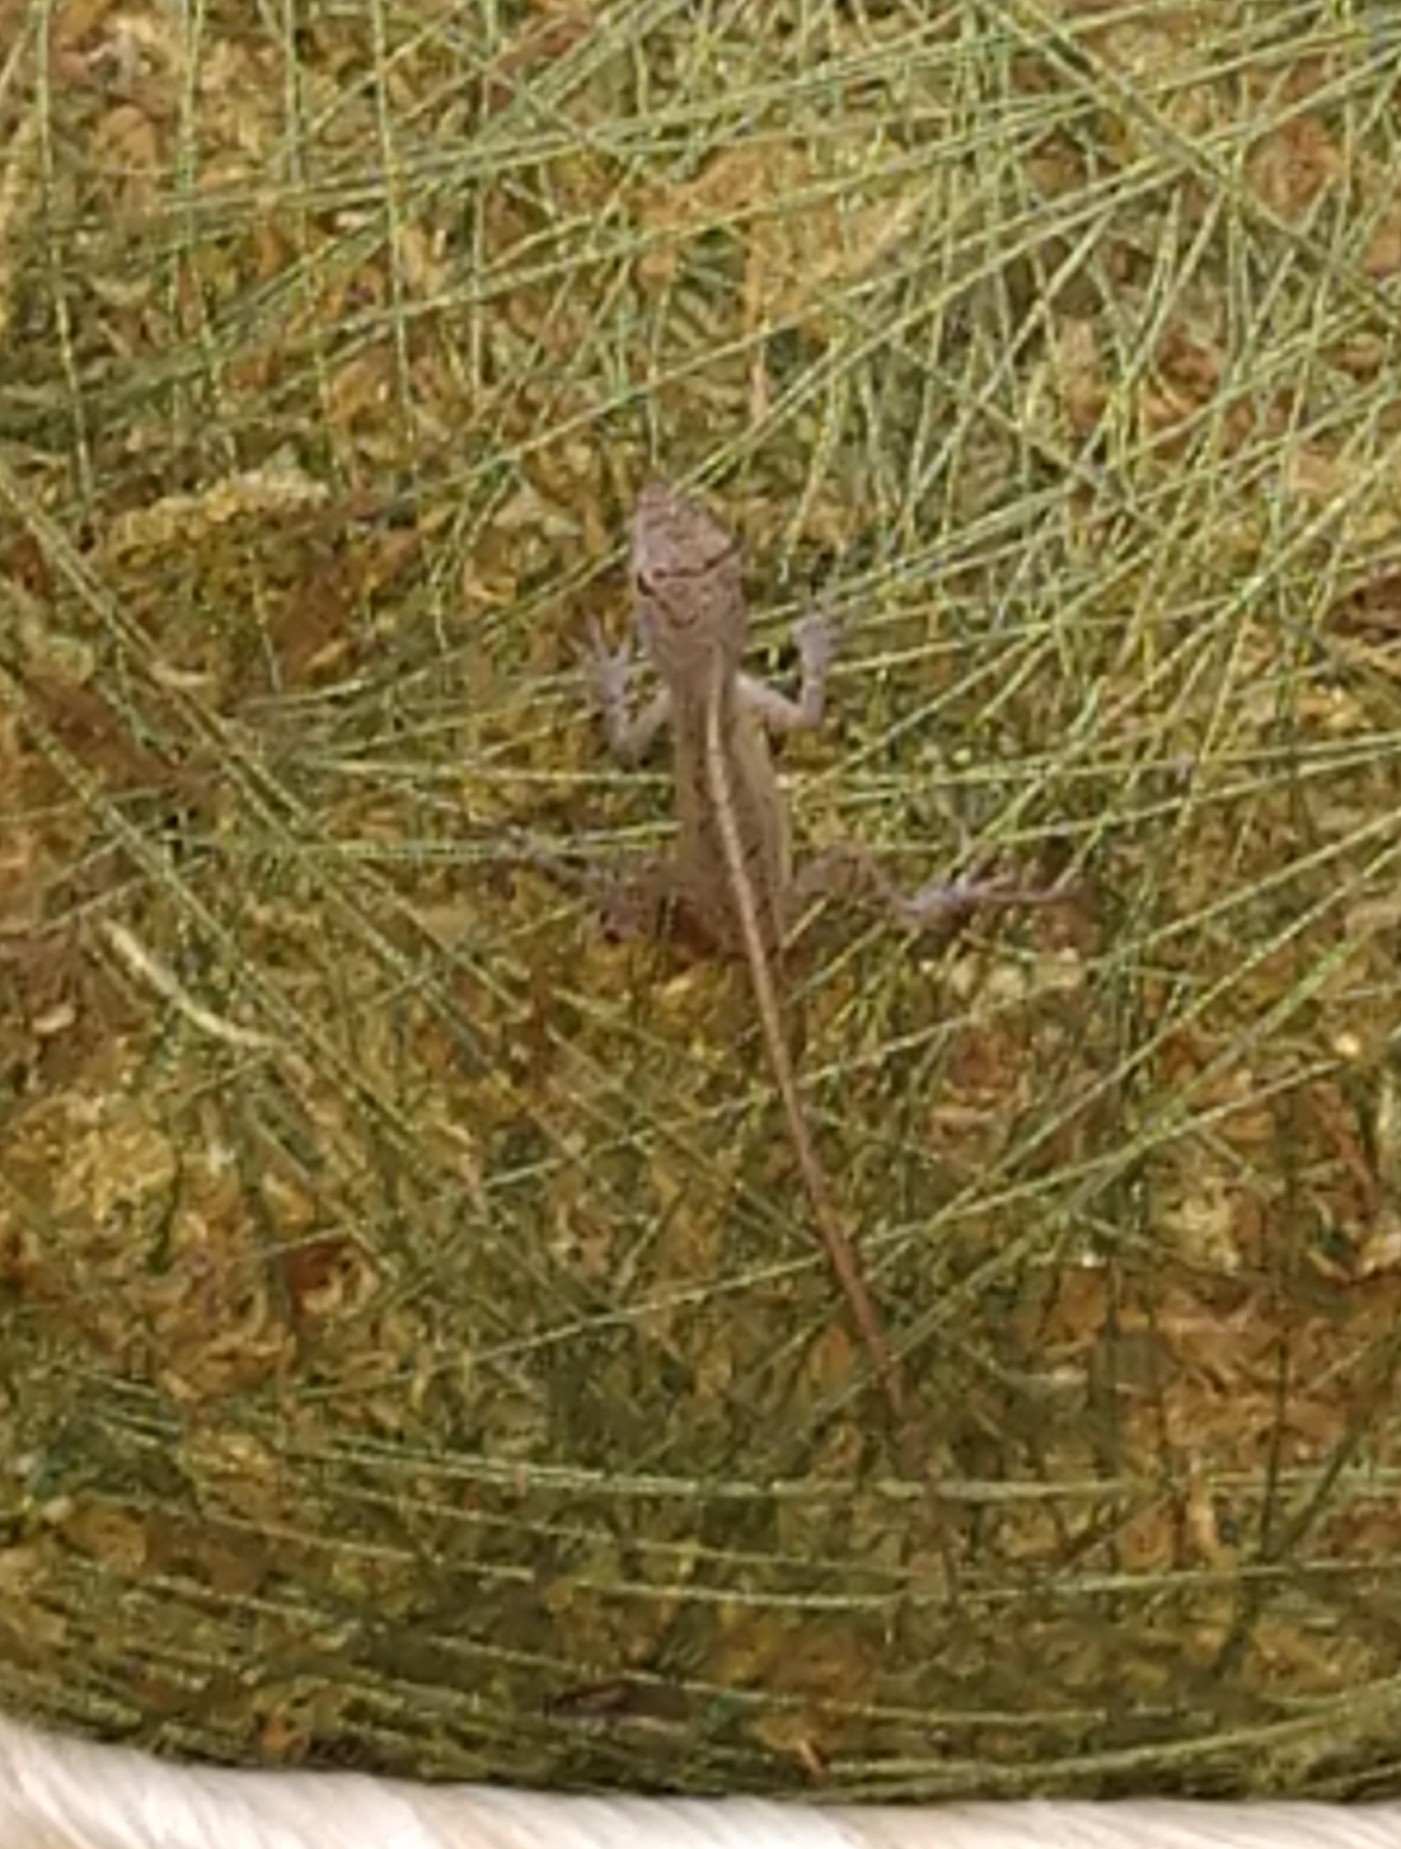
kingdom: Animalia
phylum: Chordata
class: Squamata
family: Dactyloidae
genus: Anolis
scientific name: Anolis sagrei
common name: Brown anole
